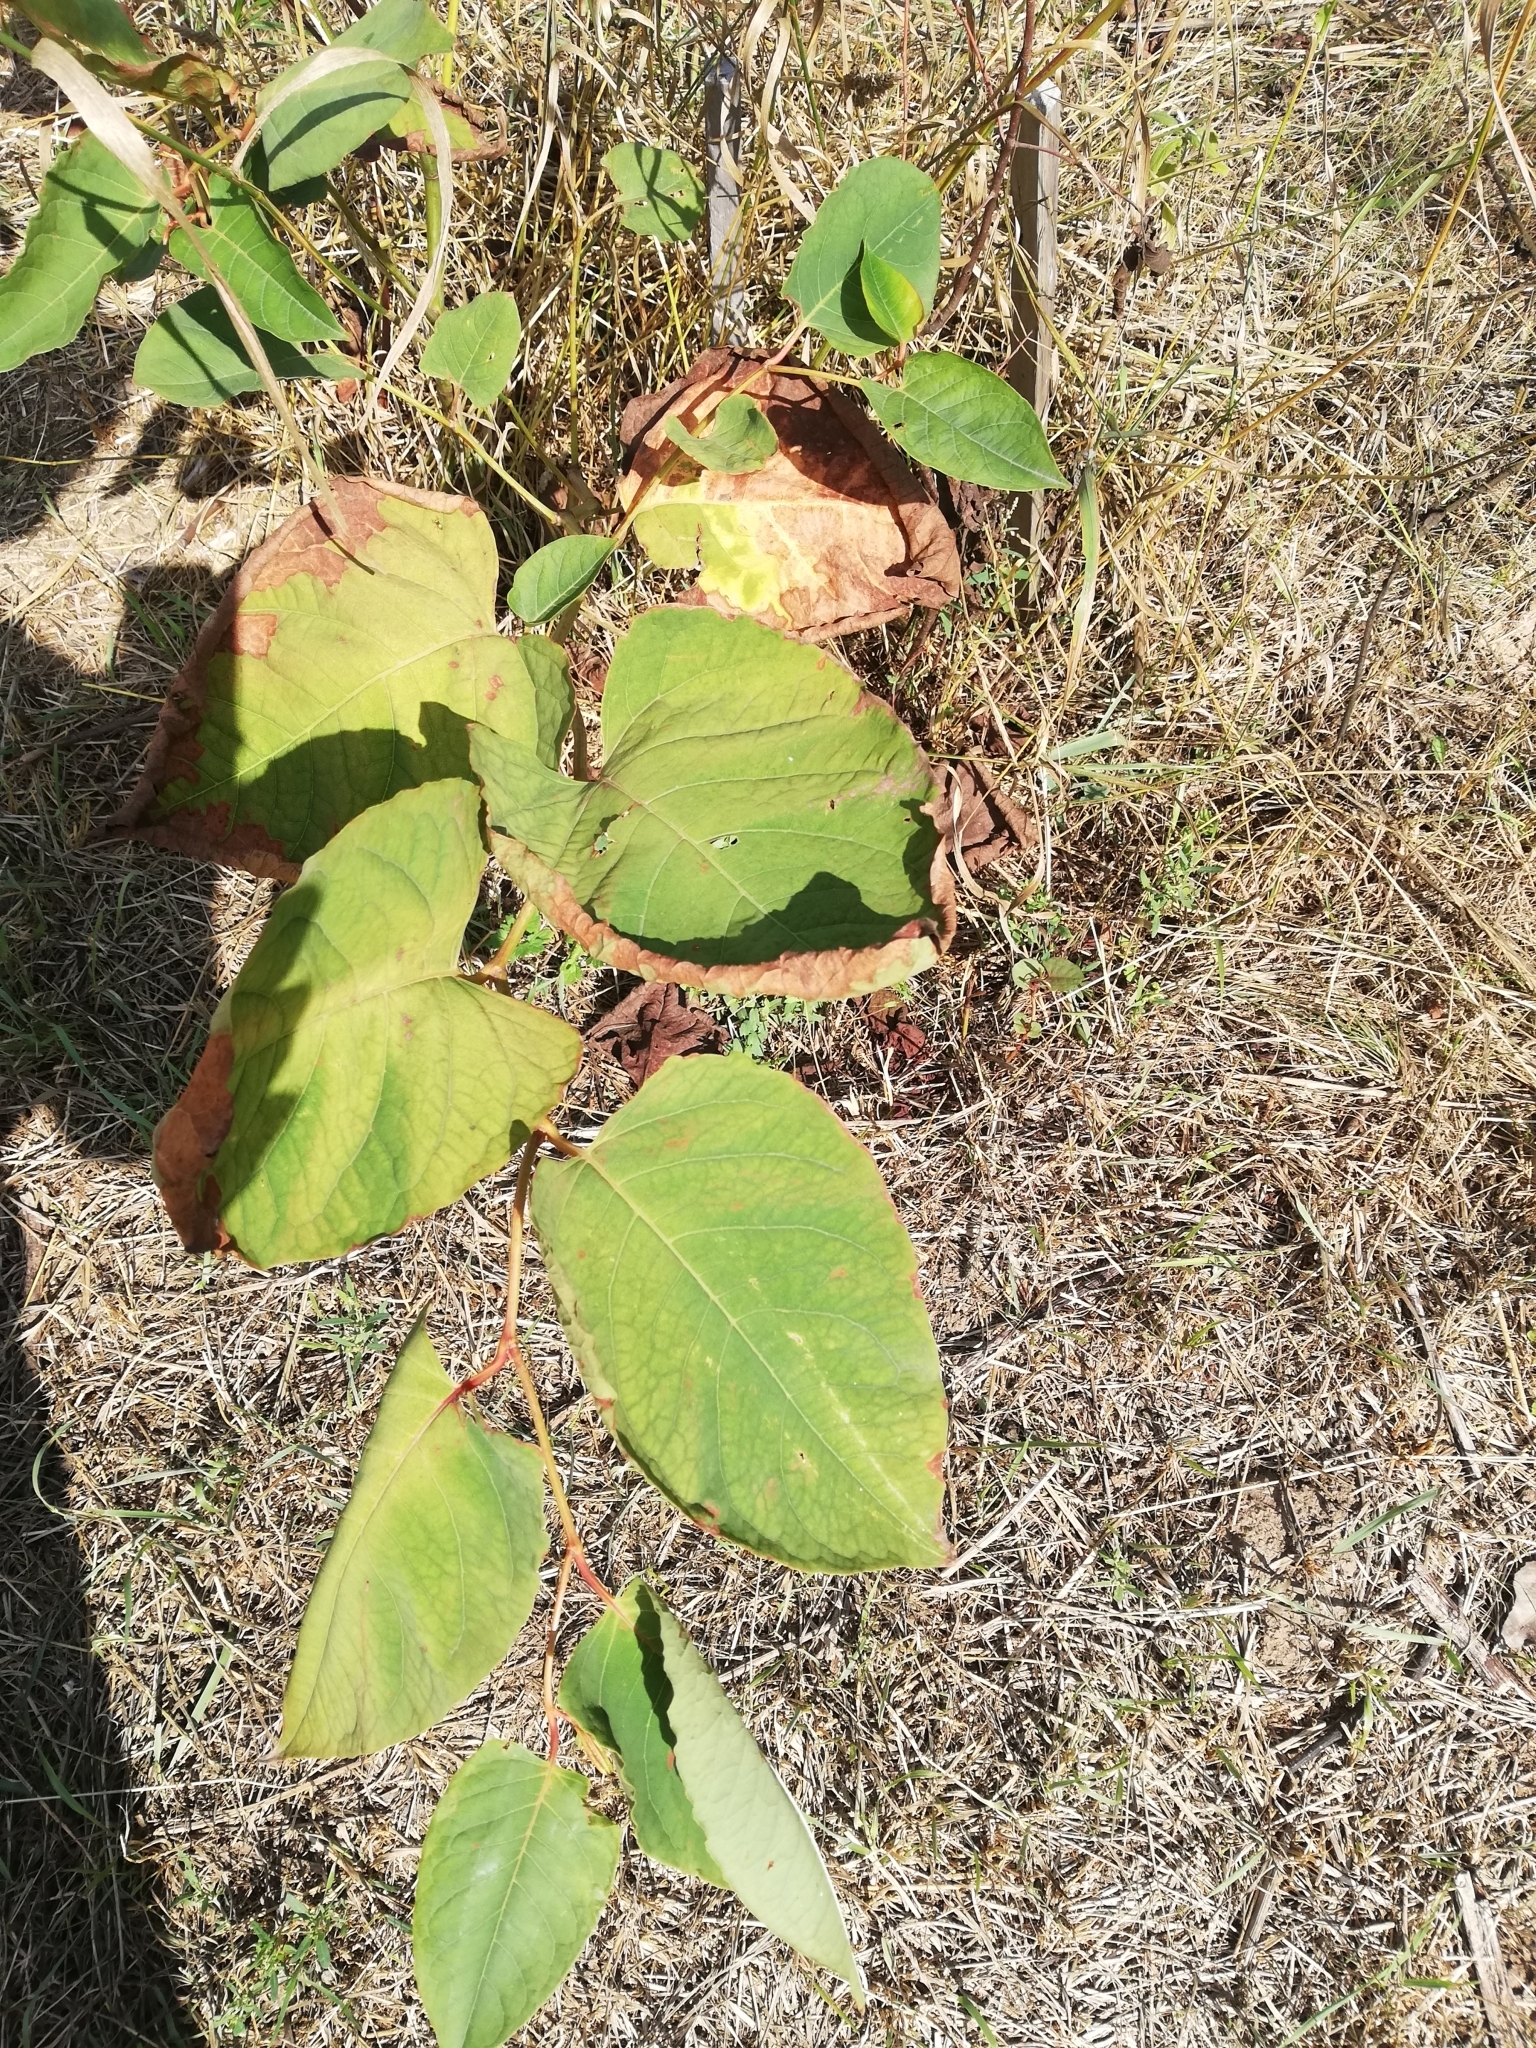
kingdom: Plantae
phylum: Tracheophyta
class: Magnoliopsida
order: Caryophyllales
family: Polygonaceae
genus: Reynoutria
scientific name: Reynoutria bohemica
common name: Bohemian knotweed
